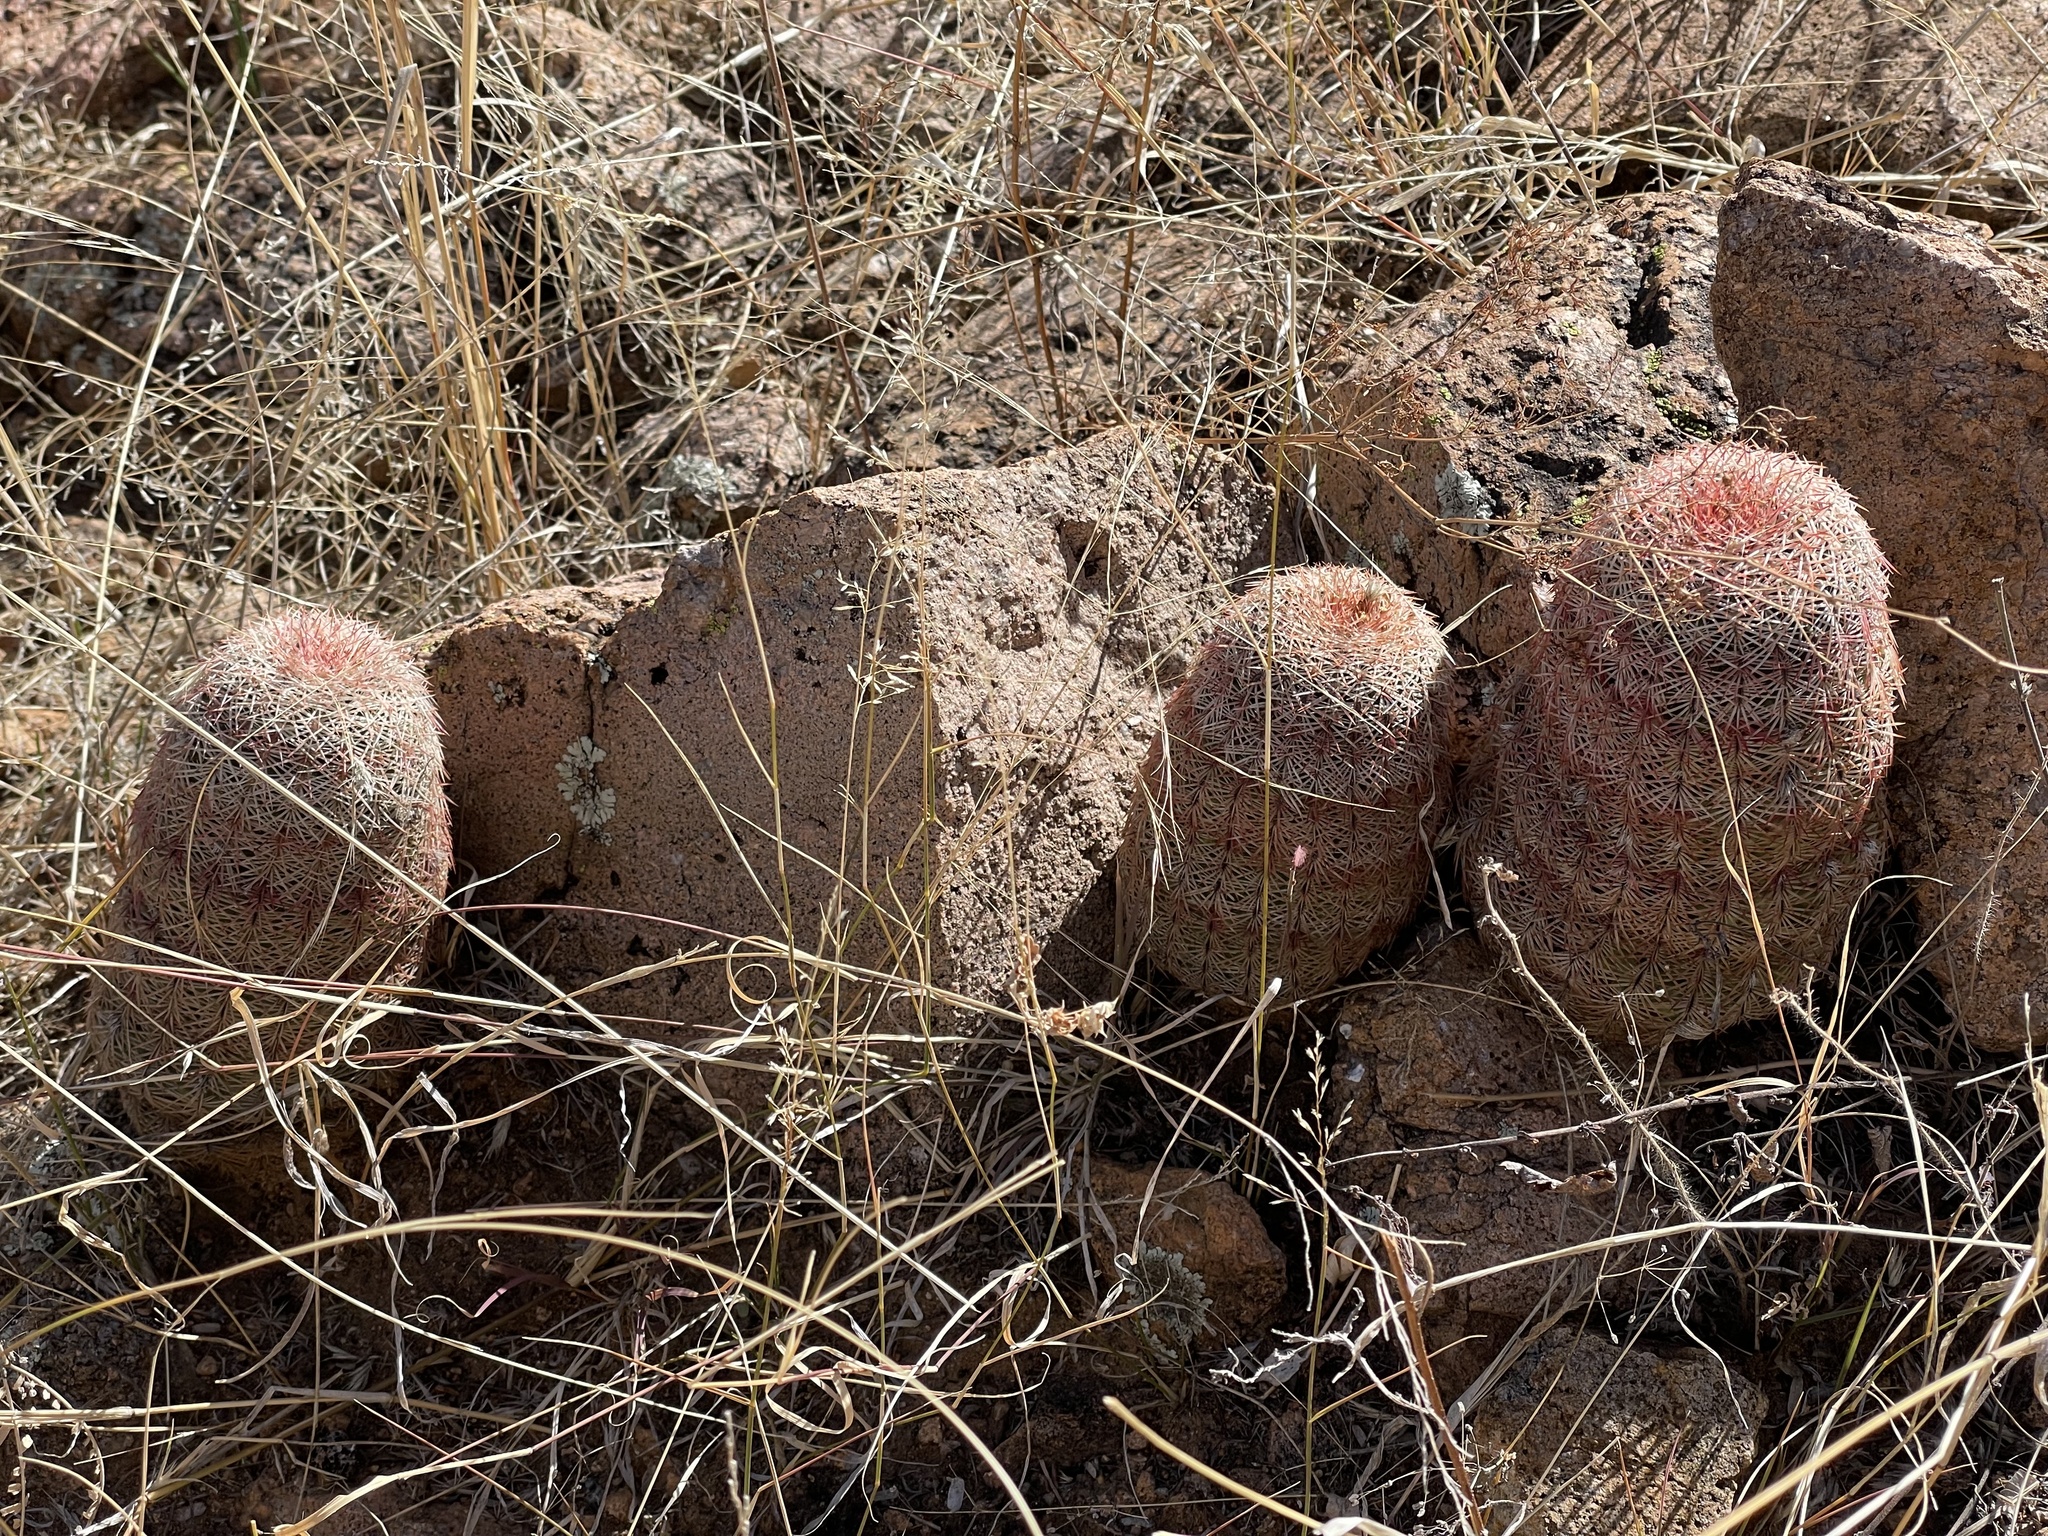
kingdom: Plantae
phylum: Tracheophyta
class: Magnoliopsida
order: Caryophyllales
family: Cactaceae
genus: Echinocereus
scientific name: Echinocereus rigidissimus
